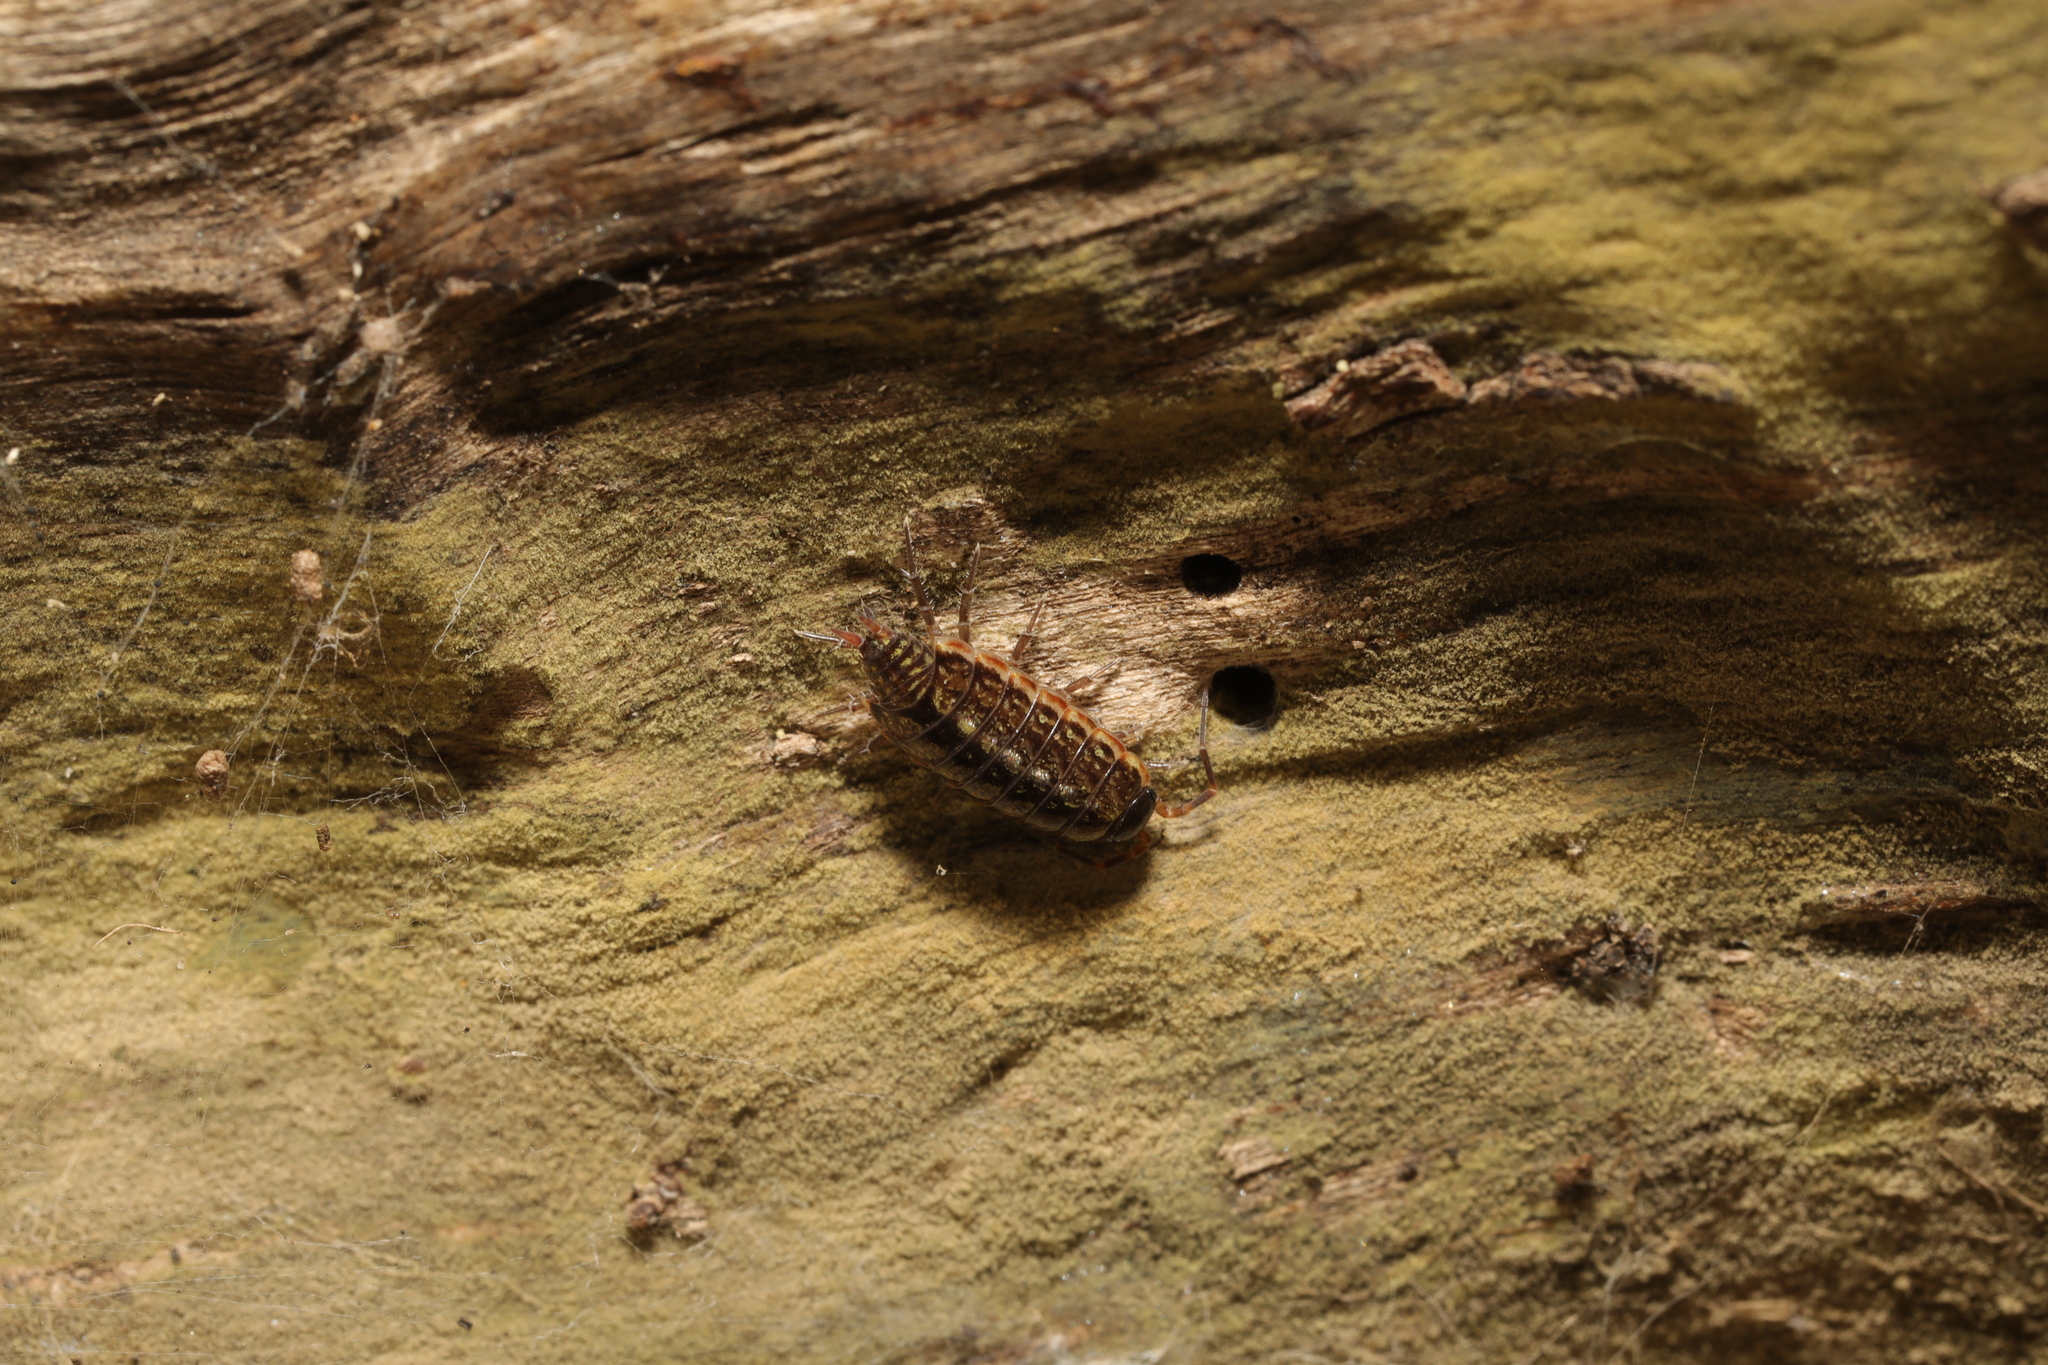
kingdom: Animalia
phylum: Arthropoda
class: Malacostraca
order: Isopoda
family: Philosciidae
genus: Philoscia
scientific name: Philoscia muscorum
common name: Common striped woodlouse
